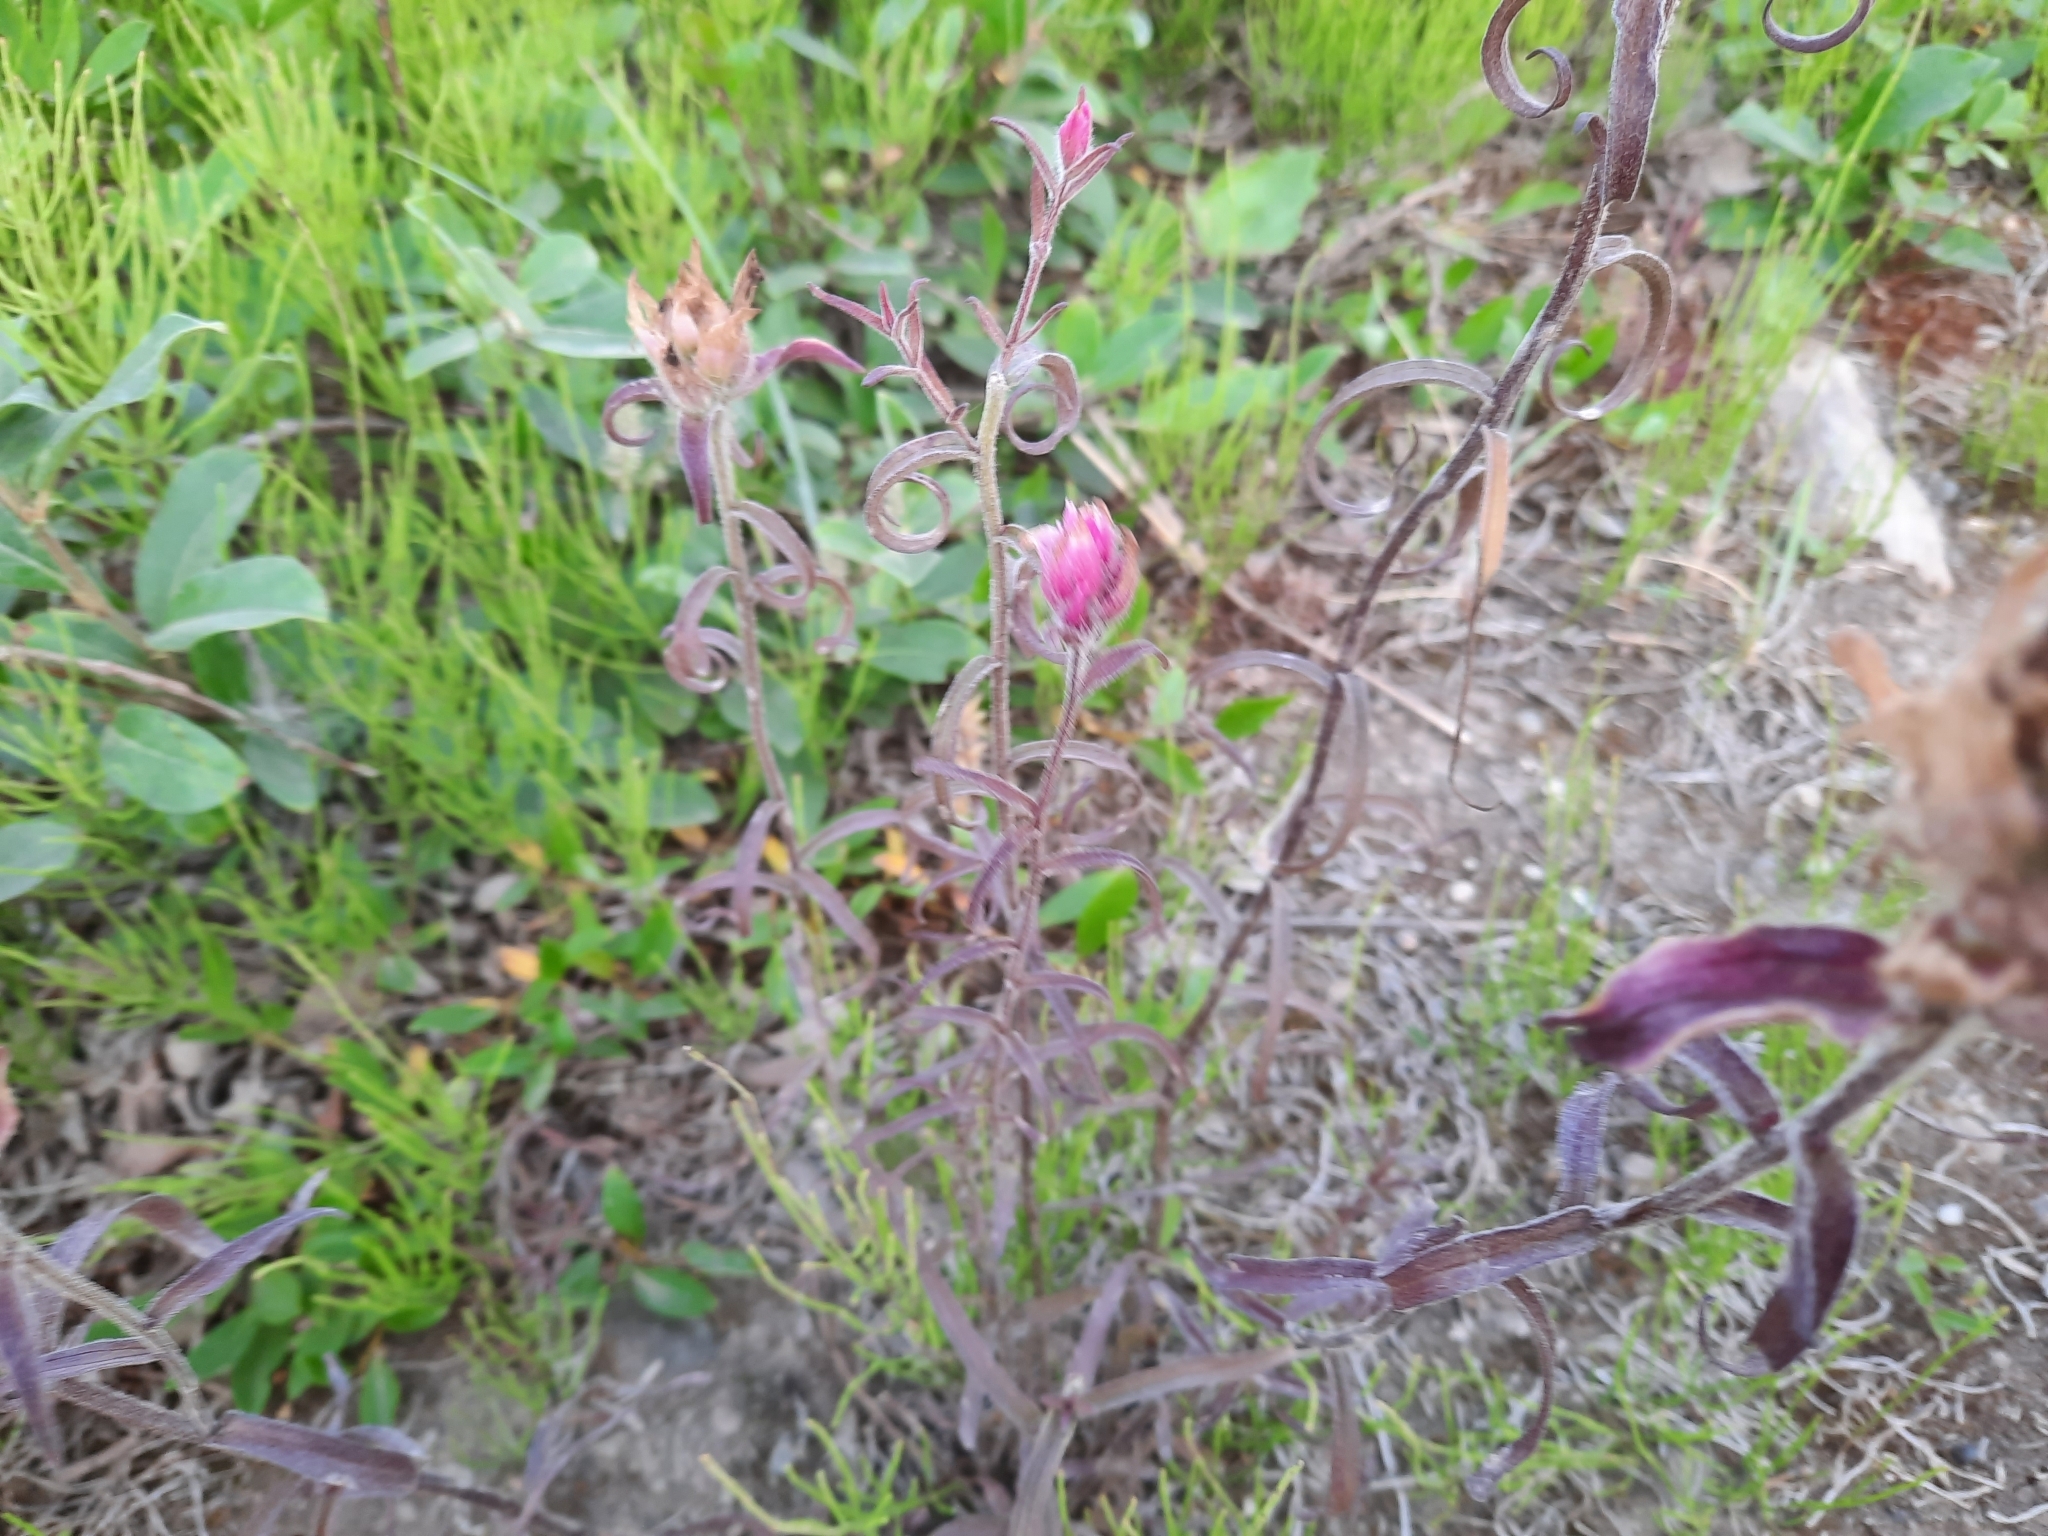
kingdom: Plantae
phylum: Tracheophyta
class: Magnoliopsida
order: Lamiales
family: Orobanchaceae
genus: Castilleja
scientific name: Castilleja raupii
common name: Raup's paintbrush
